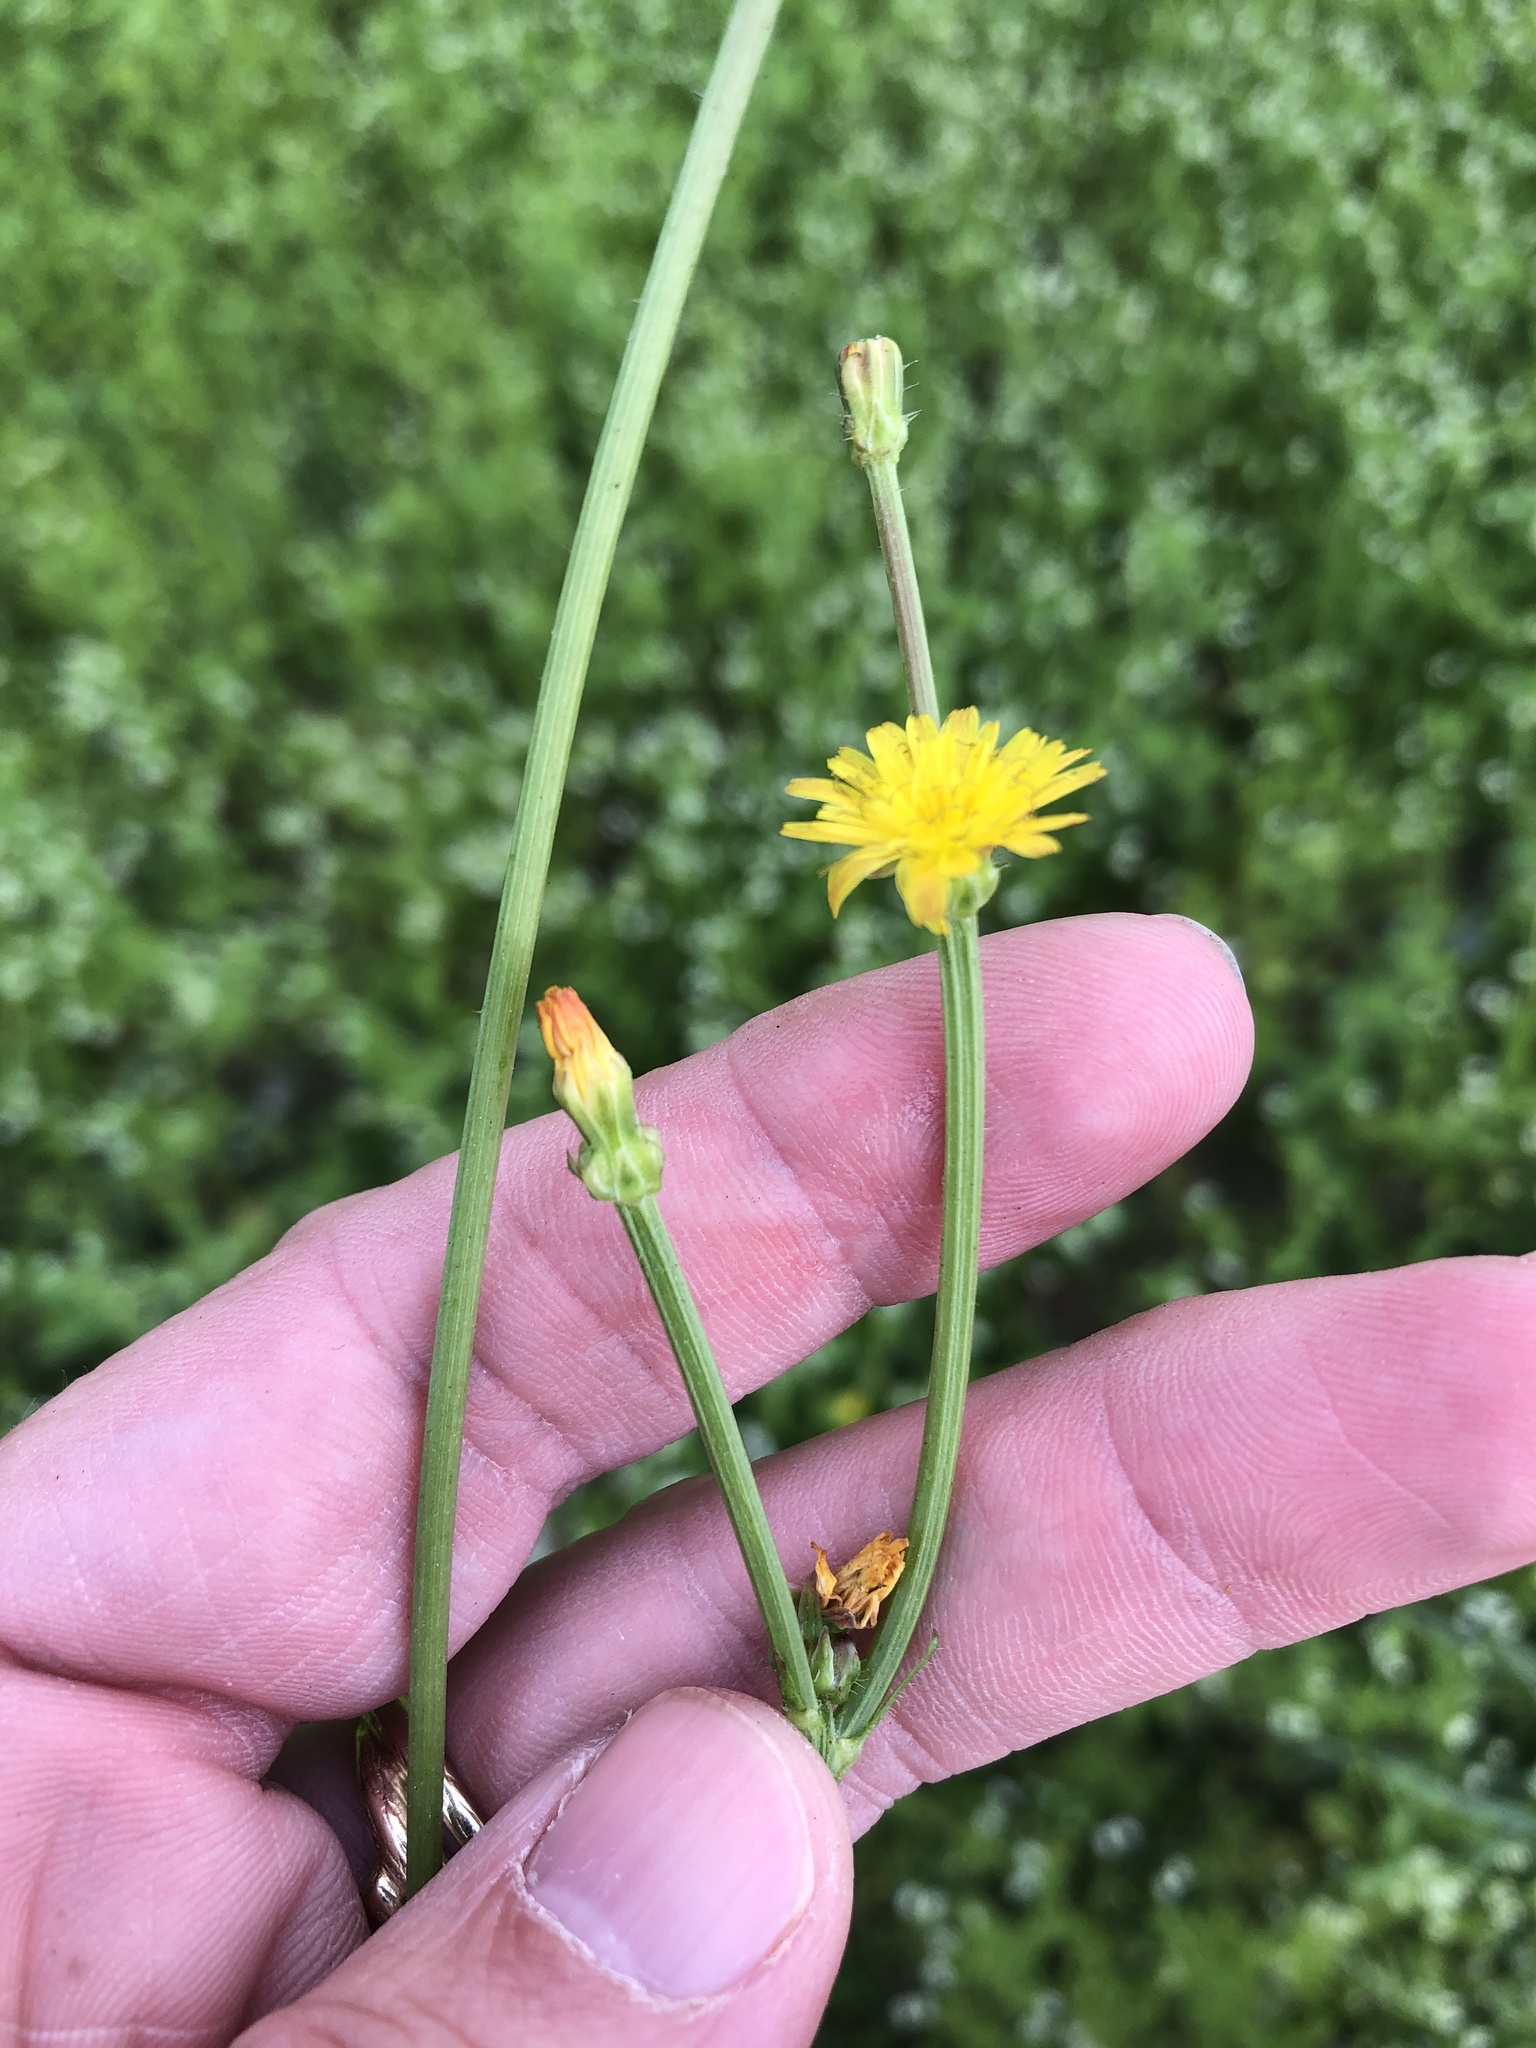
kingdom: Plantae
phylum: Tracheophyta
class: Magnoliopsida
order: Asterales
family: Asteraceae
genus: Crepis
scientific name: Crepis zacintha
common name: Striped hawksbeard
